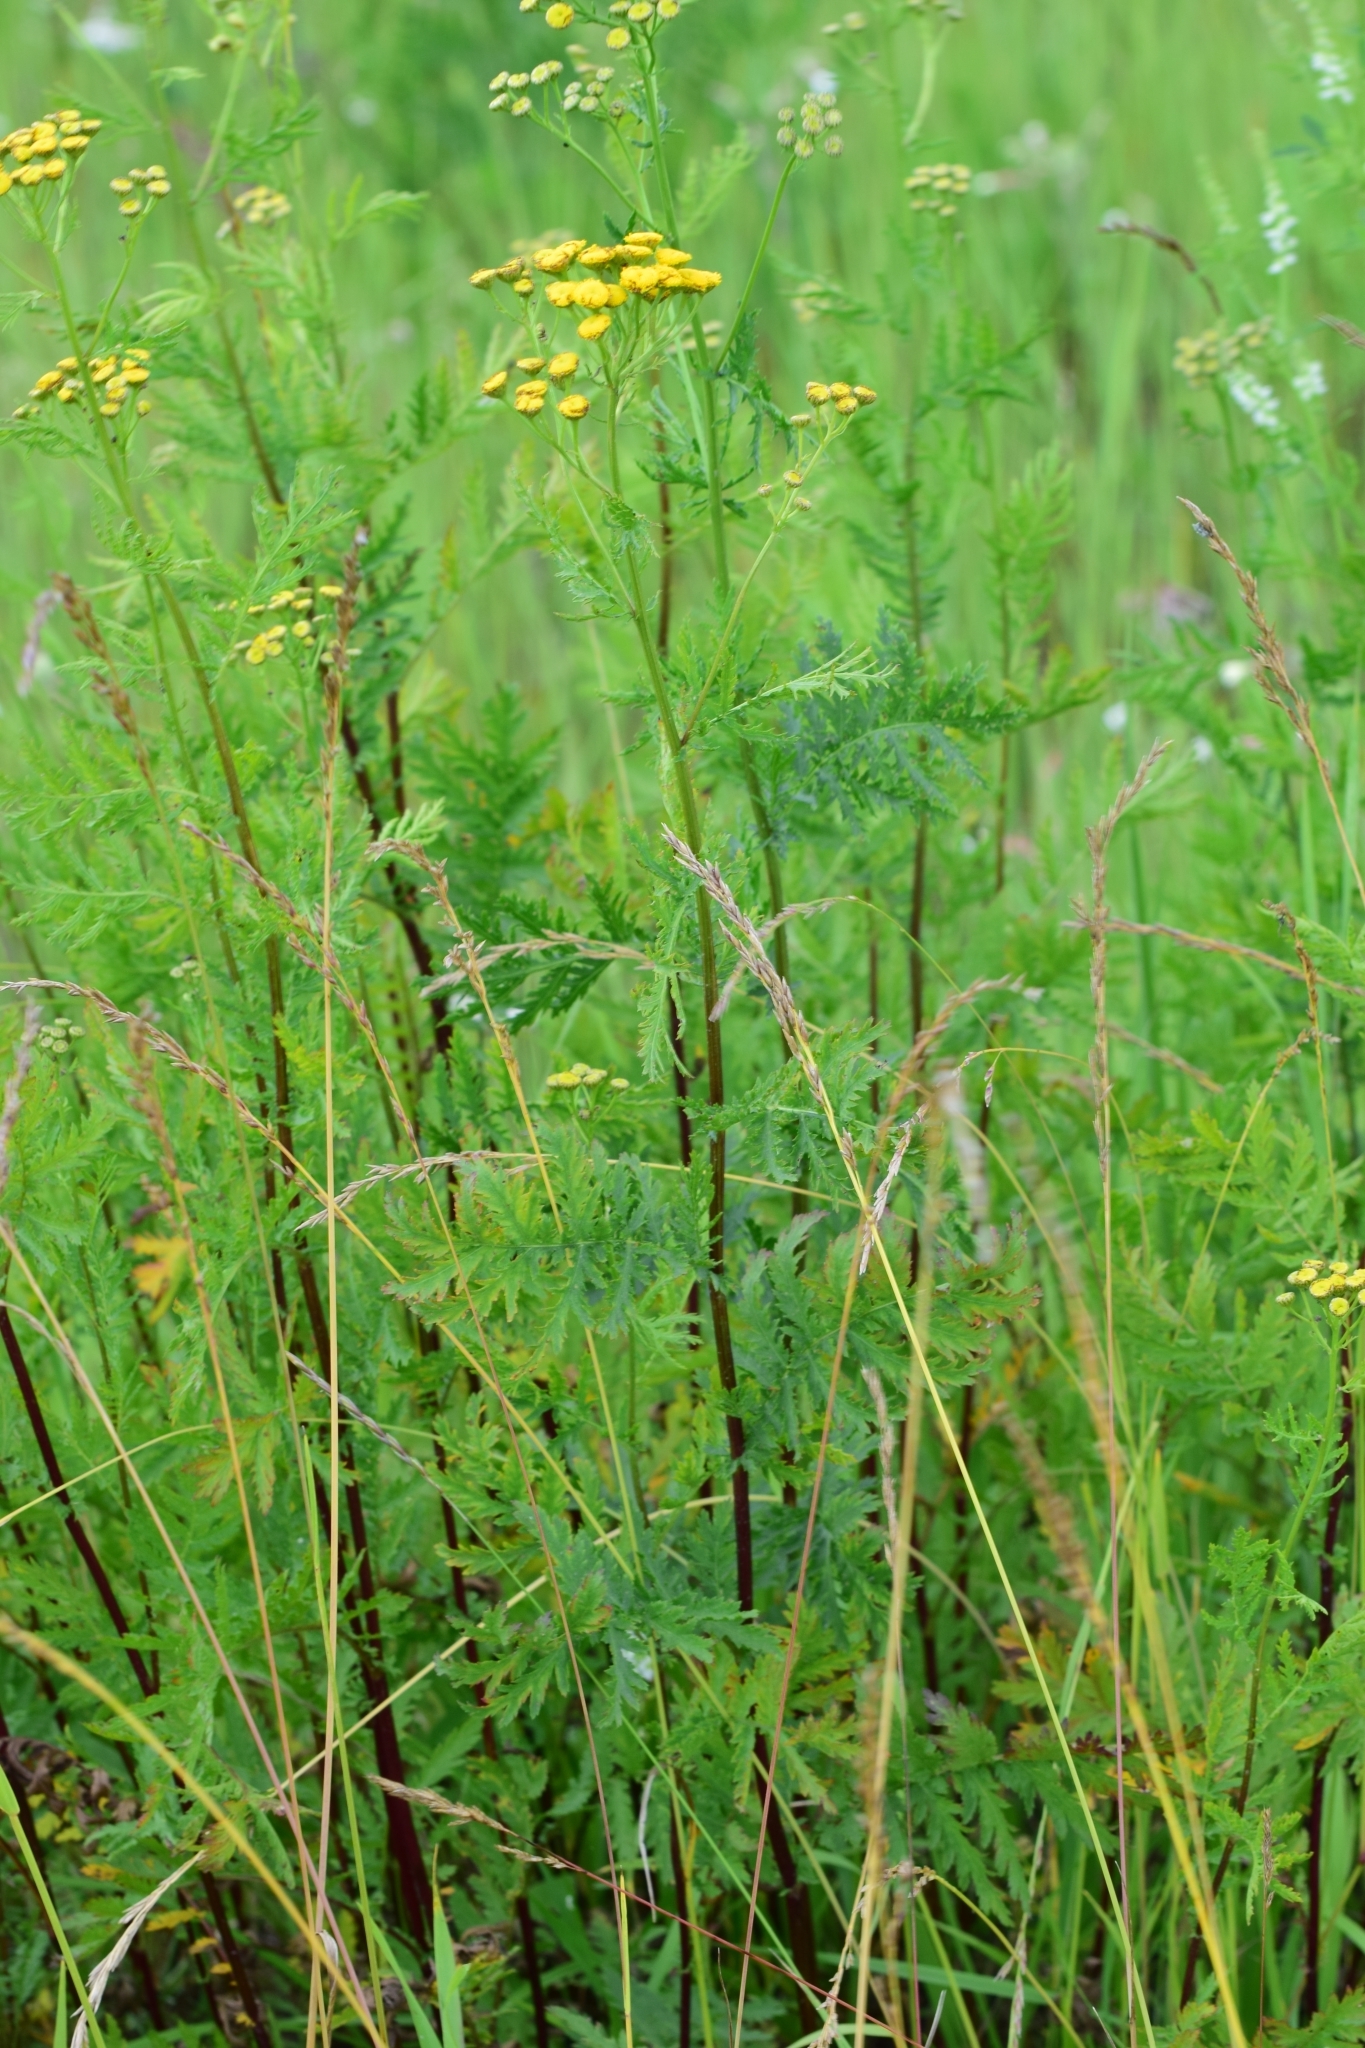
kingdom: Plantae
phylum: Tracheophyta
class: Magnoliopsida
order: Asterales
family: Asteraceae
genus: Tanacetum
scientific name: Tanacetum vulgare
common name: Common tansy
